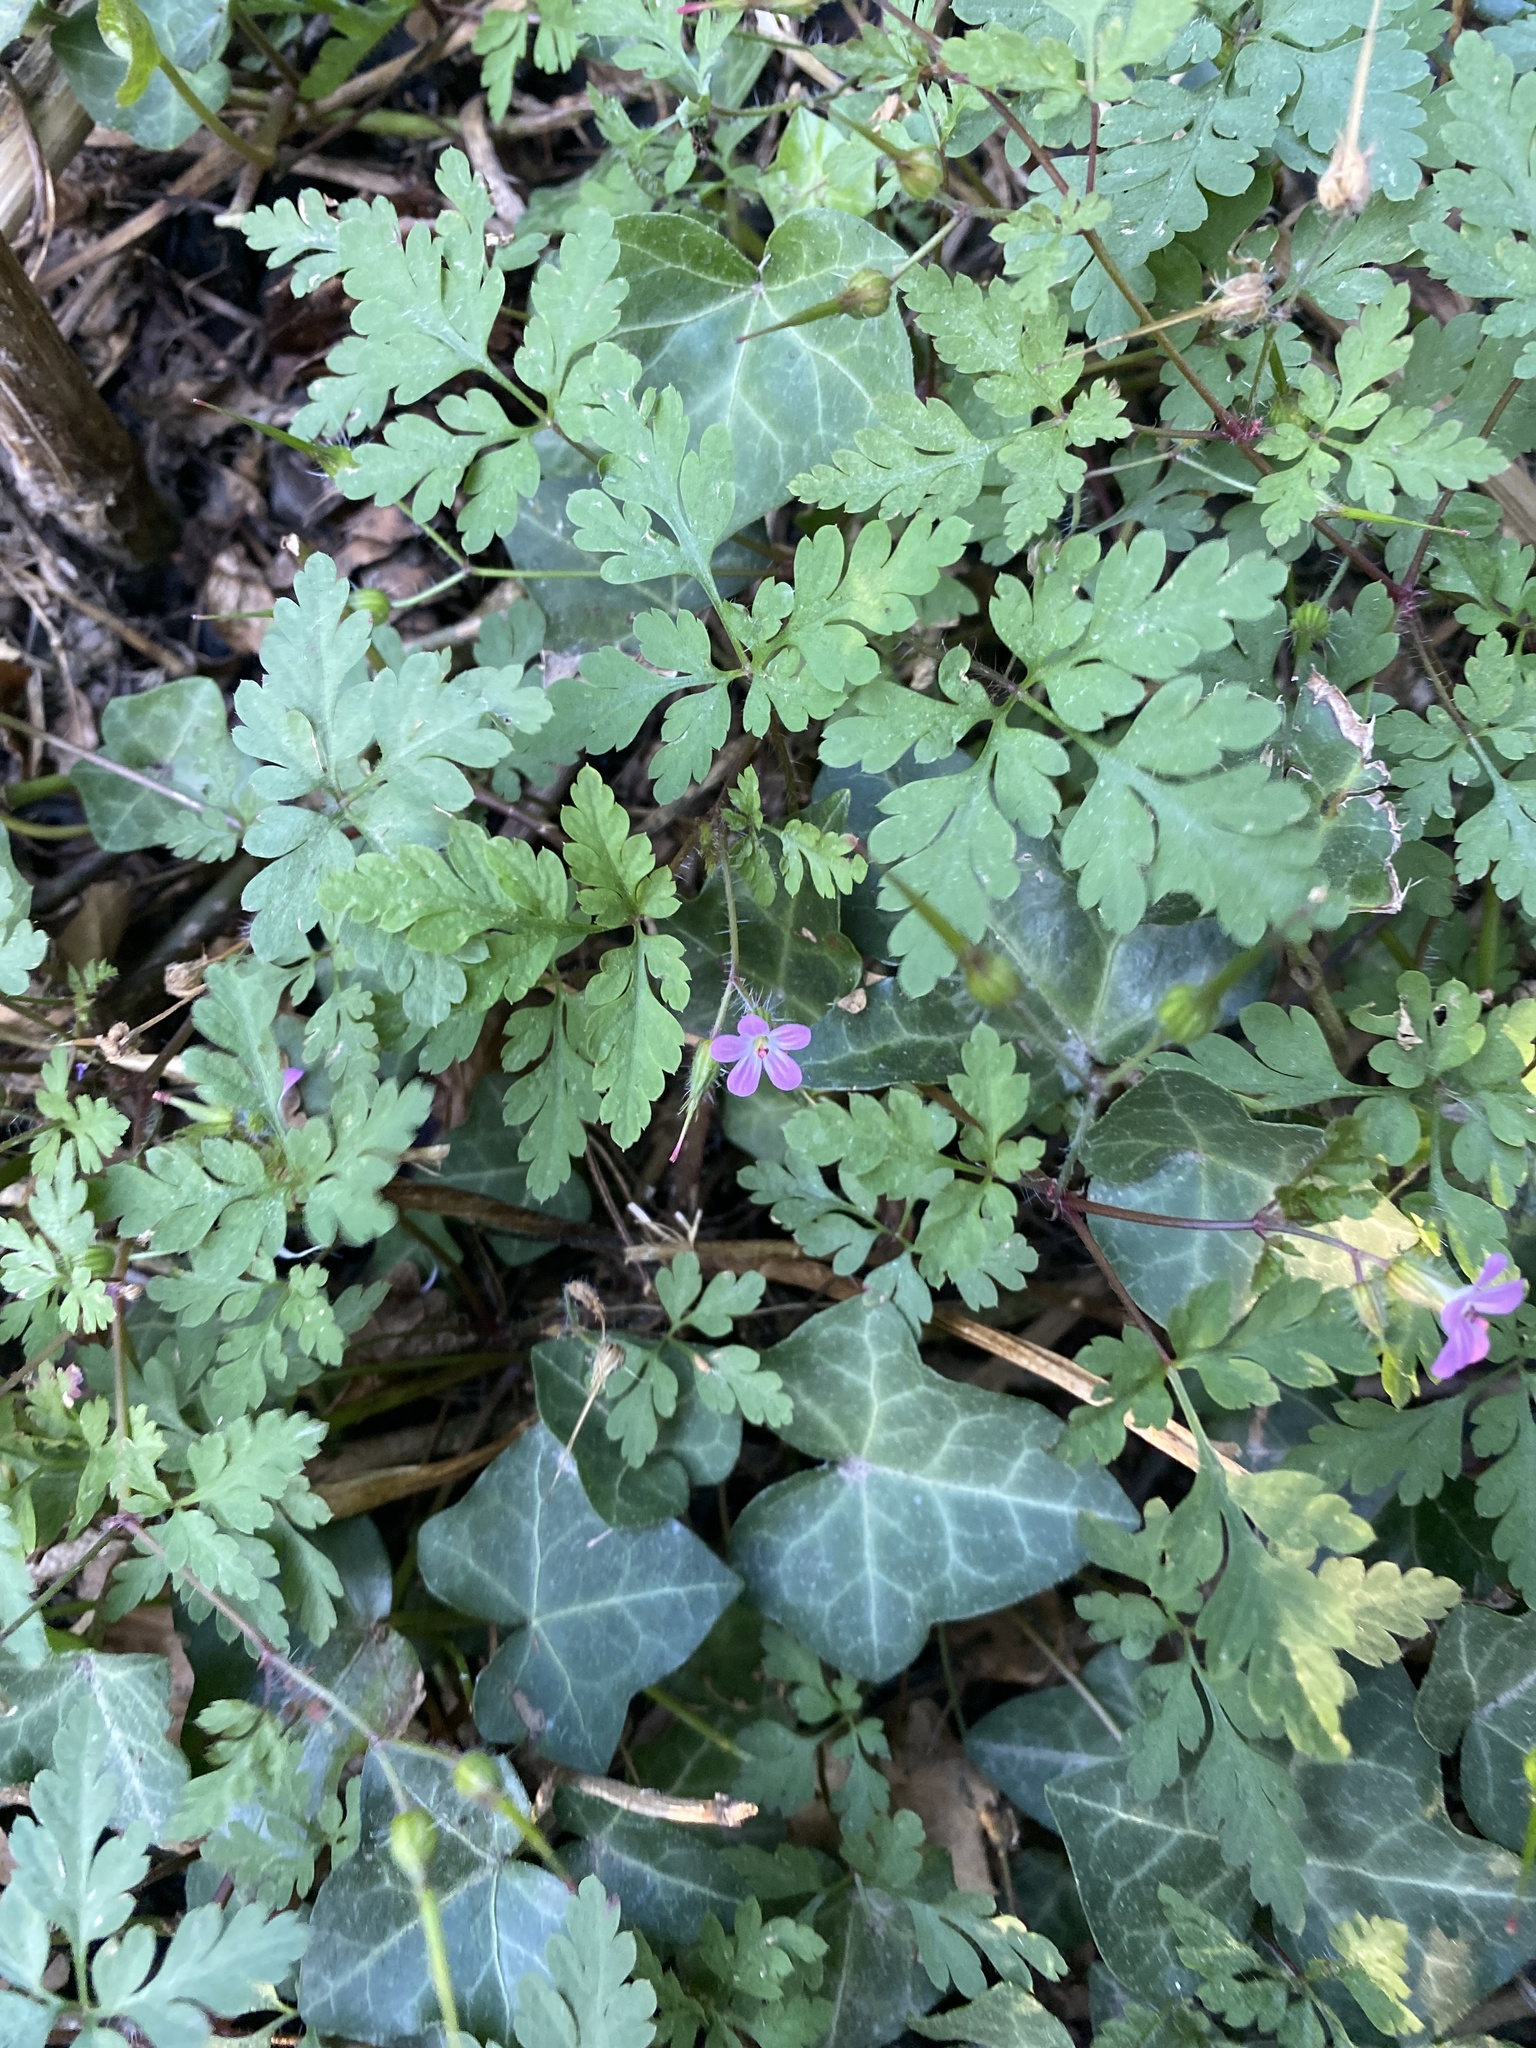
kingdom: Plantae
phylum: Tracheophyta
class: Magnoliopsida
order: Geraniales
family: Geraniaceae
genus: Geranium
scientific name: Geranium robertianum
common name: Herb-robert
